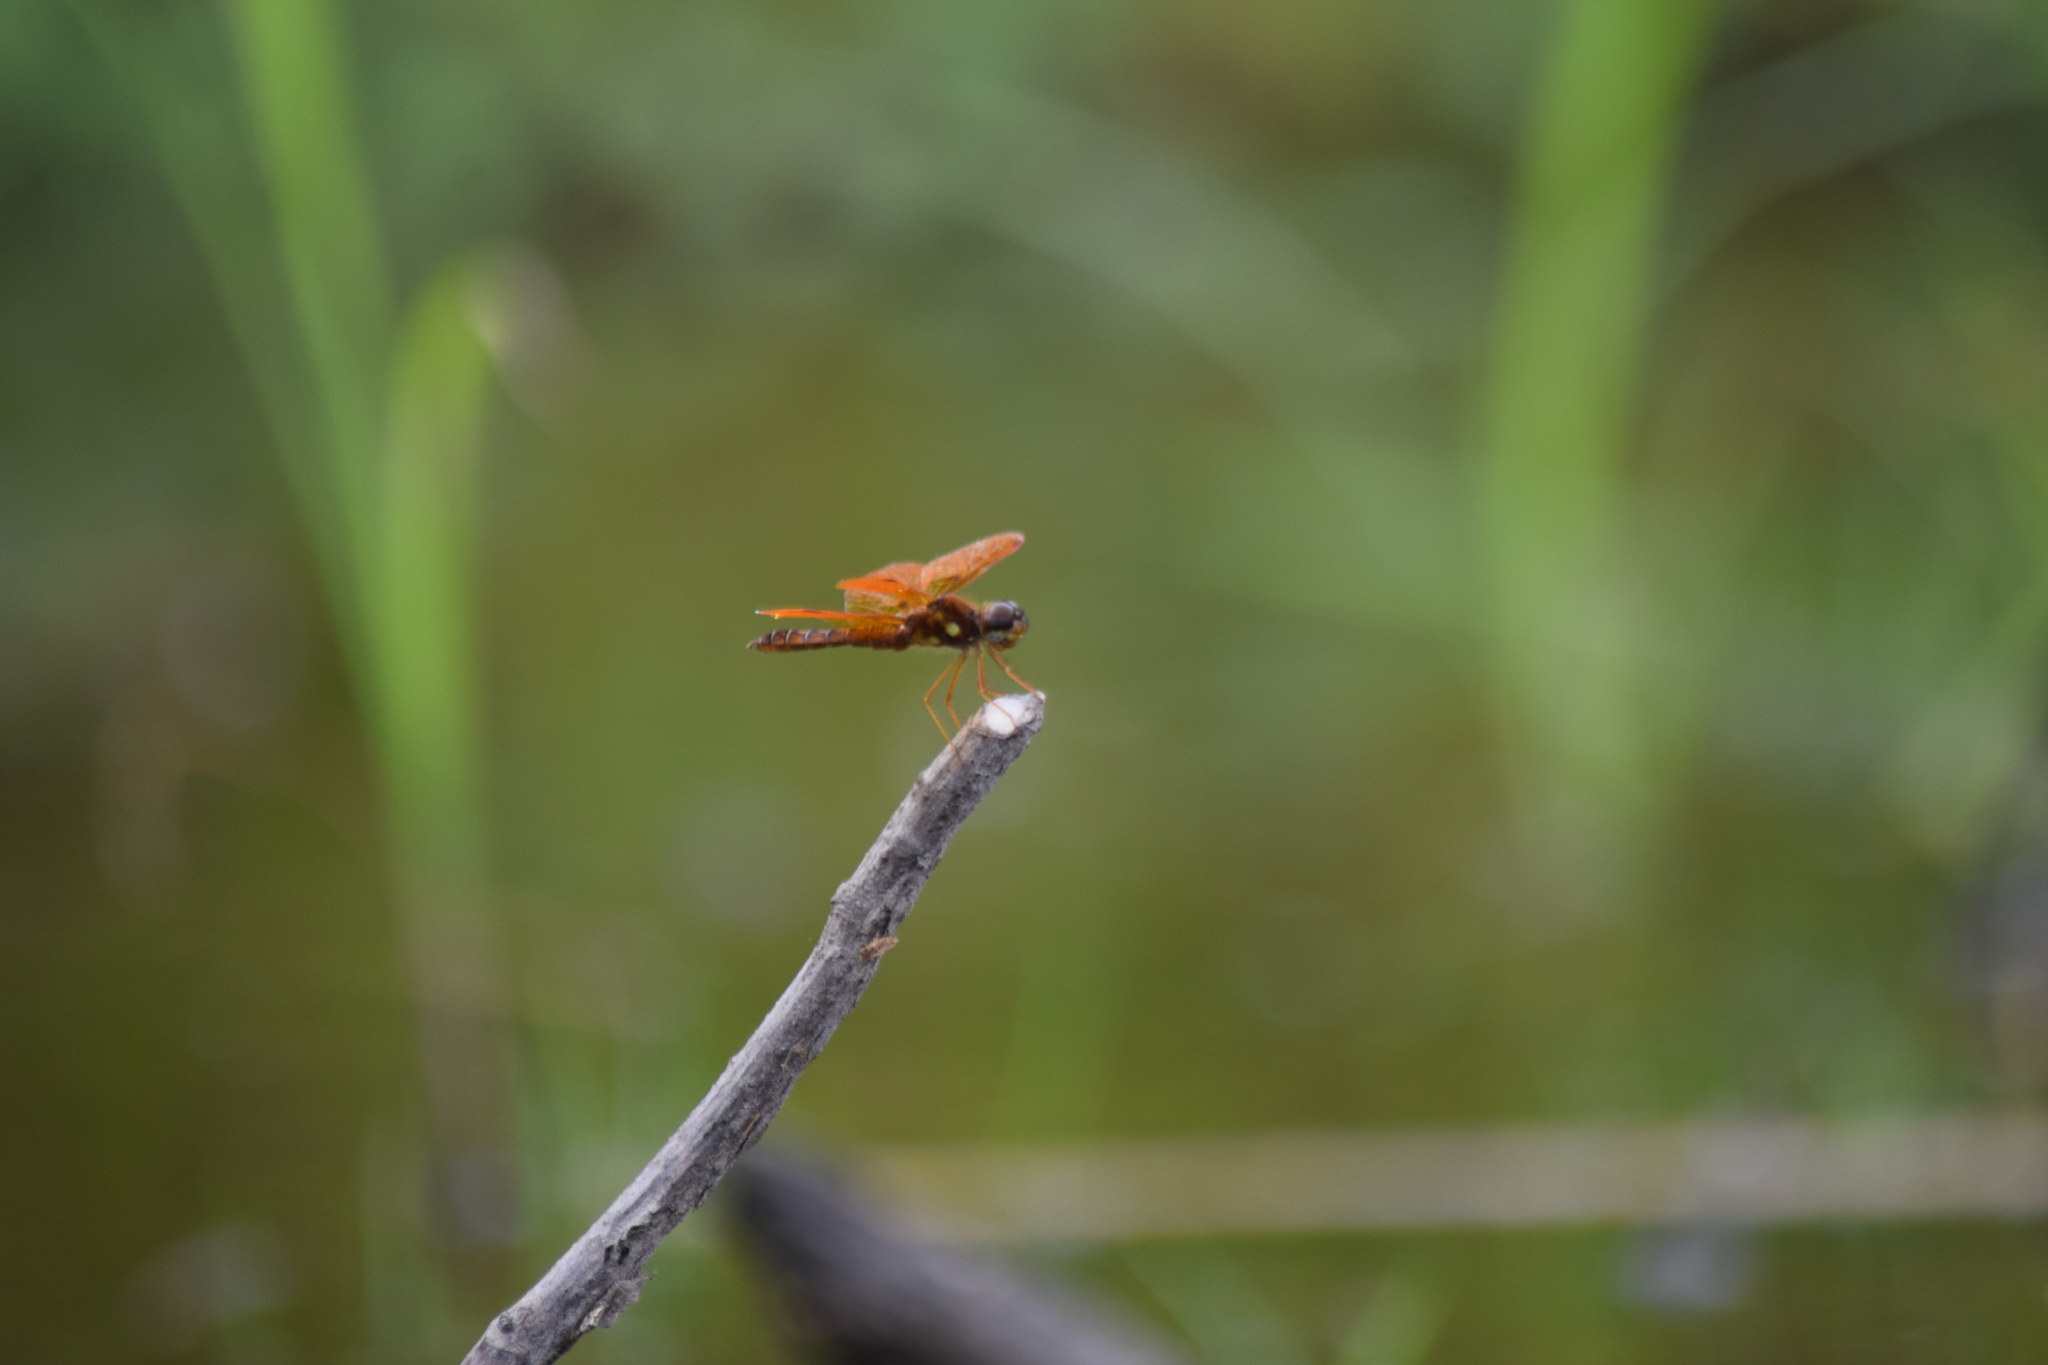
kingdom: Animalia
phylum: Arthropoda
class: Insecta
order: Odonata
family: Libellulidae
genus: Perithemis
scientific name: Perithemis tenera
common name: Eastern amberwing
